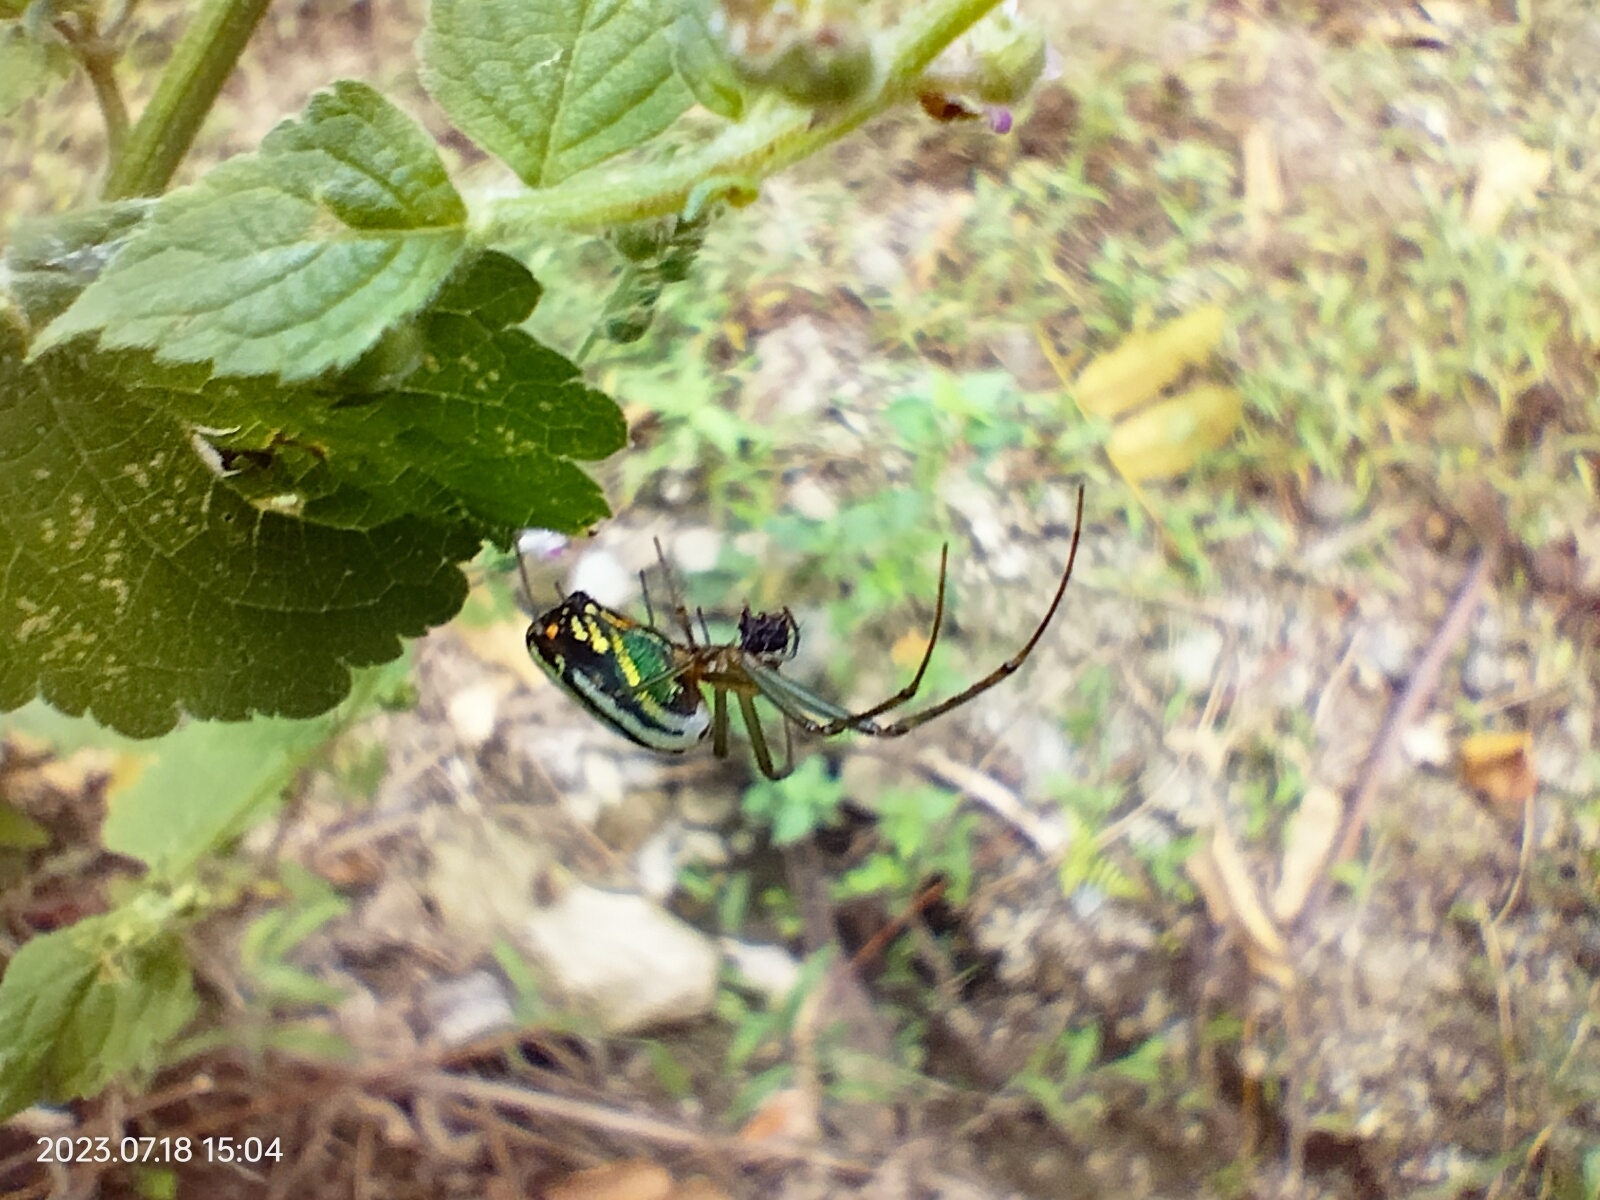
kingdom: Animalia
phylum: Arthropoda
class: Arachnida
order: Araneae
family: Tetragnathidae
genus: Leucauge
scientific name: Leucauge mariana
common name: Longjawed orb weavers
